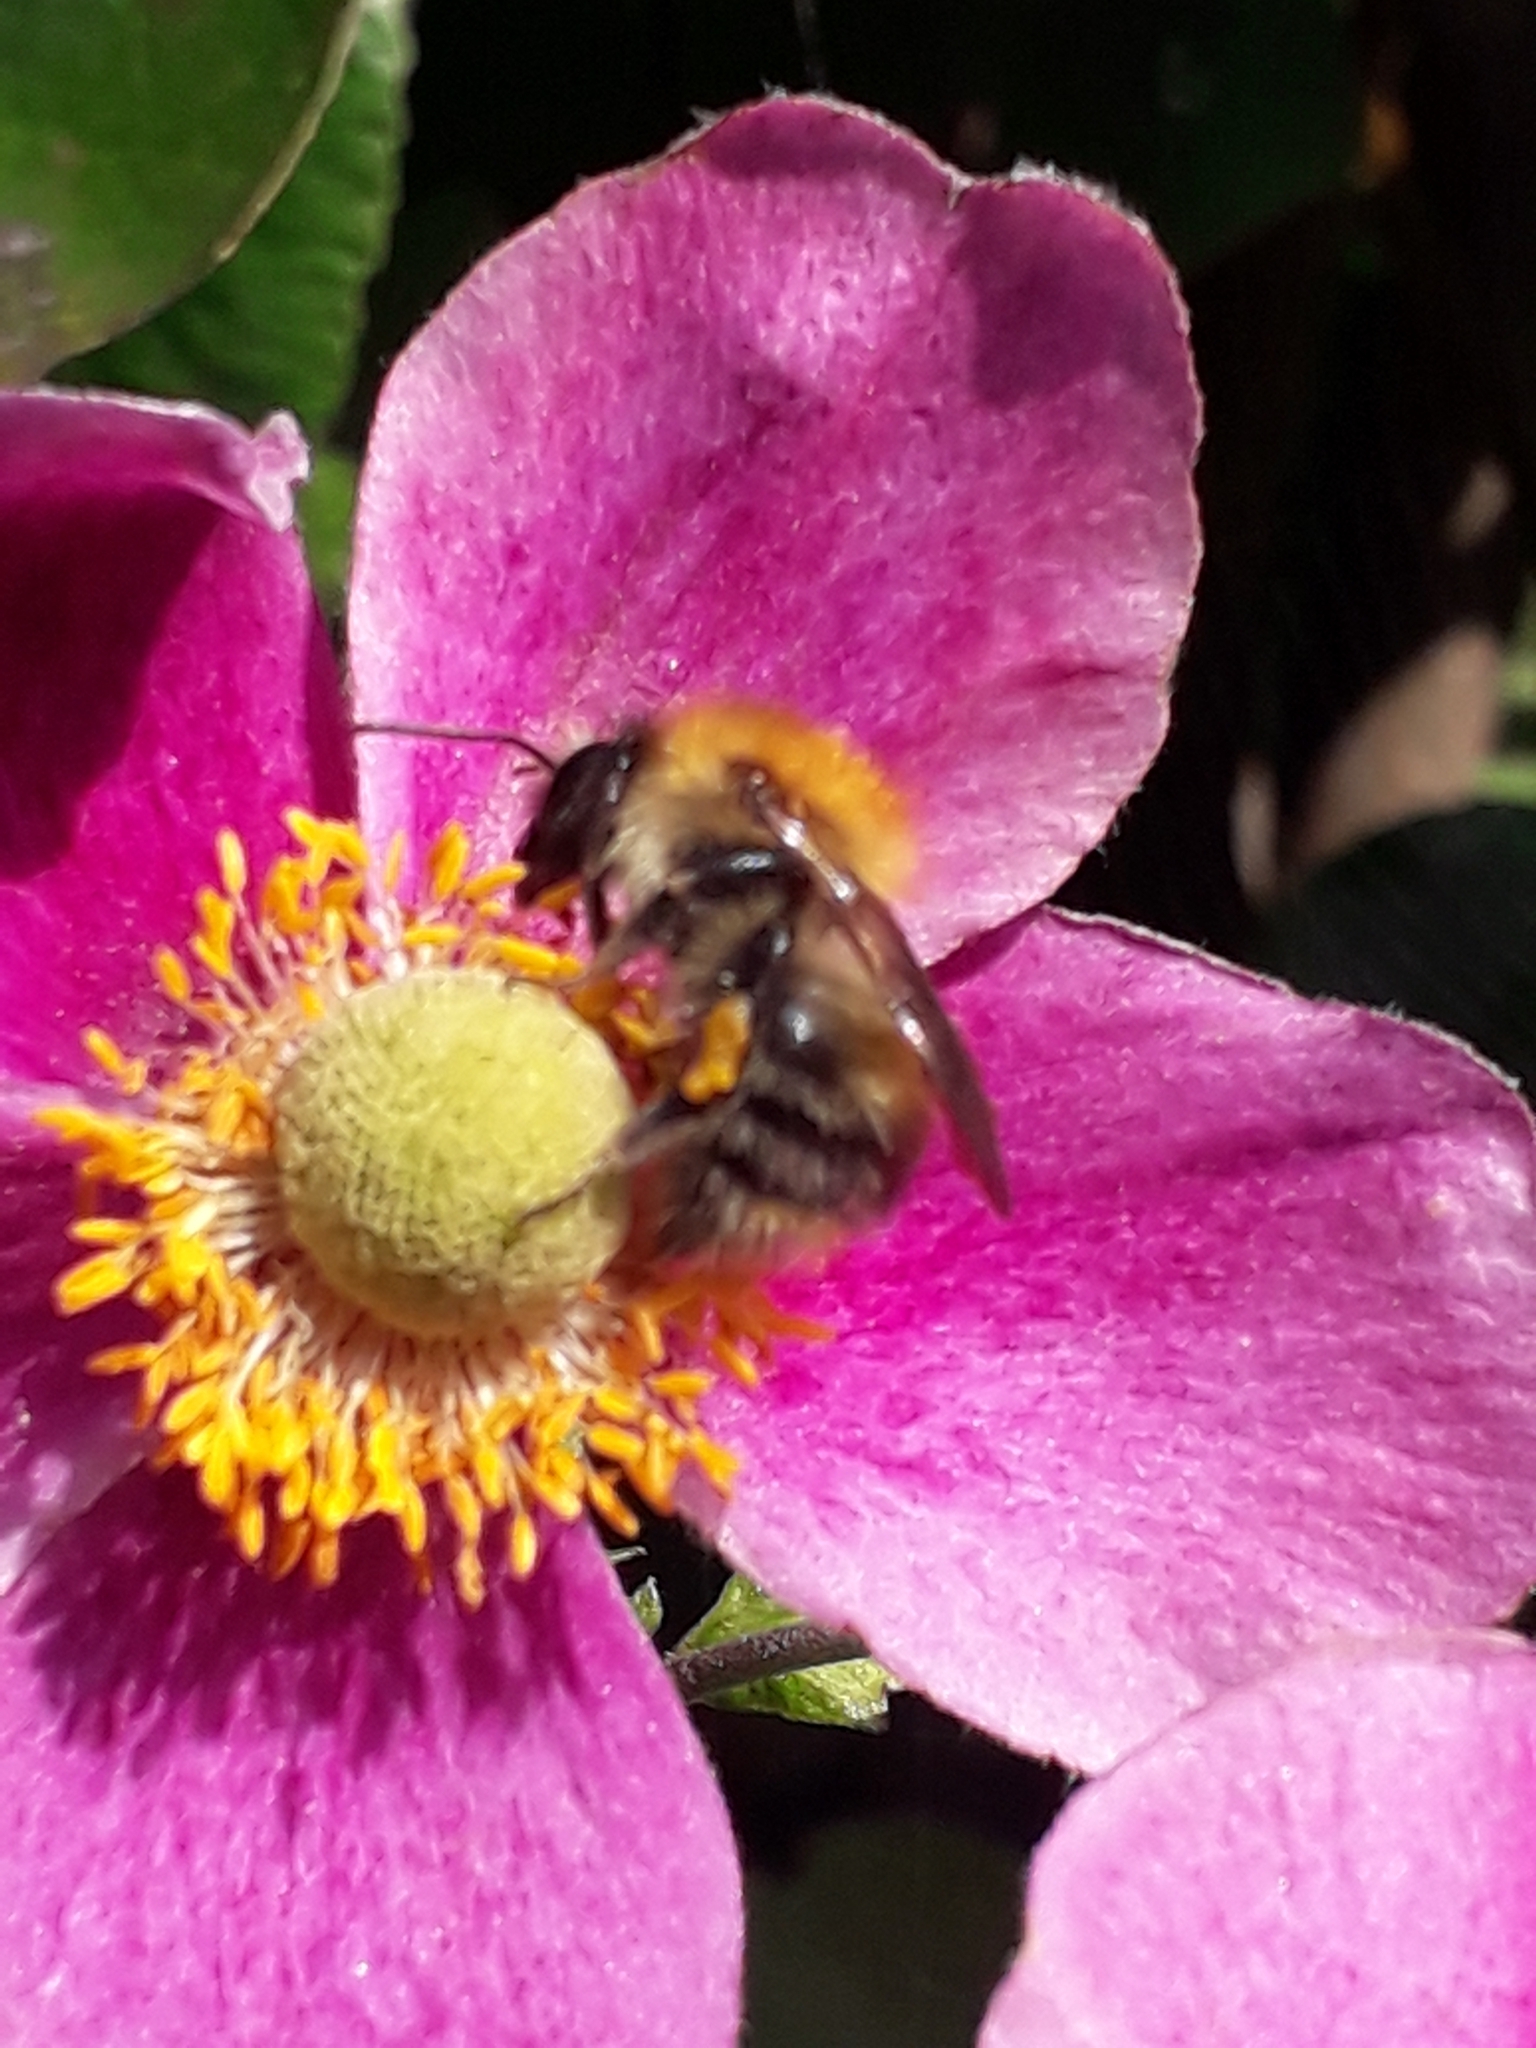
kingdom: Animalia
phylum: Arthropoda
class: Insecta
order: Hymenoptera
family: Apidae
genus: Bombus
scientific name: Bombus pascuorum
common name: Common carder bee
